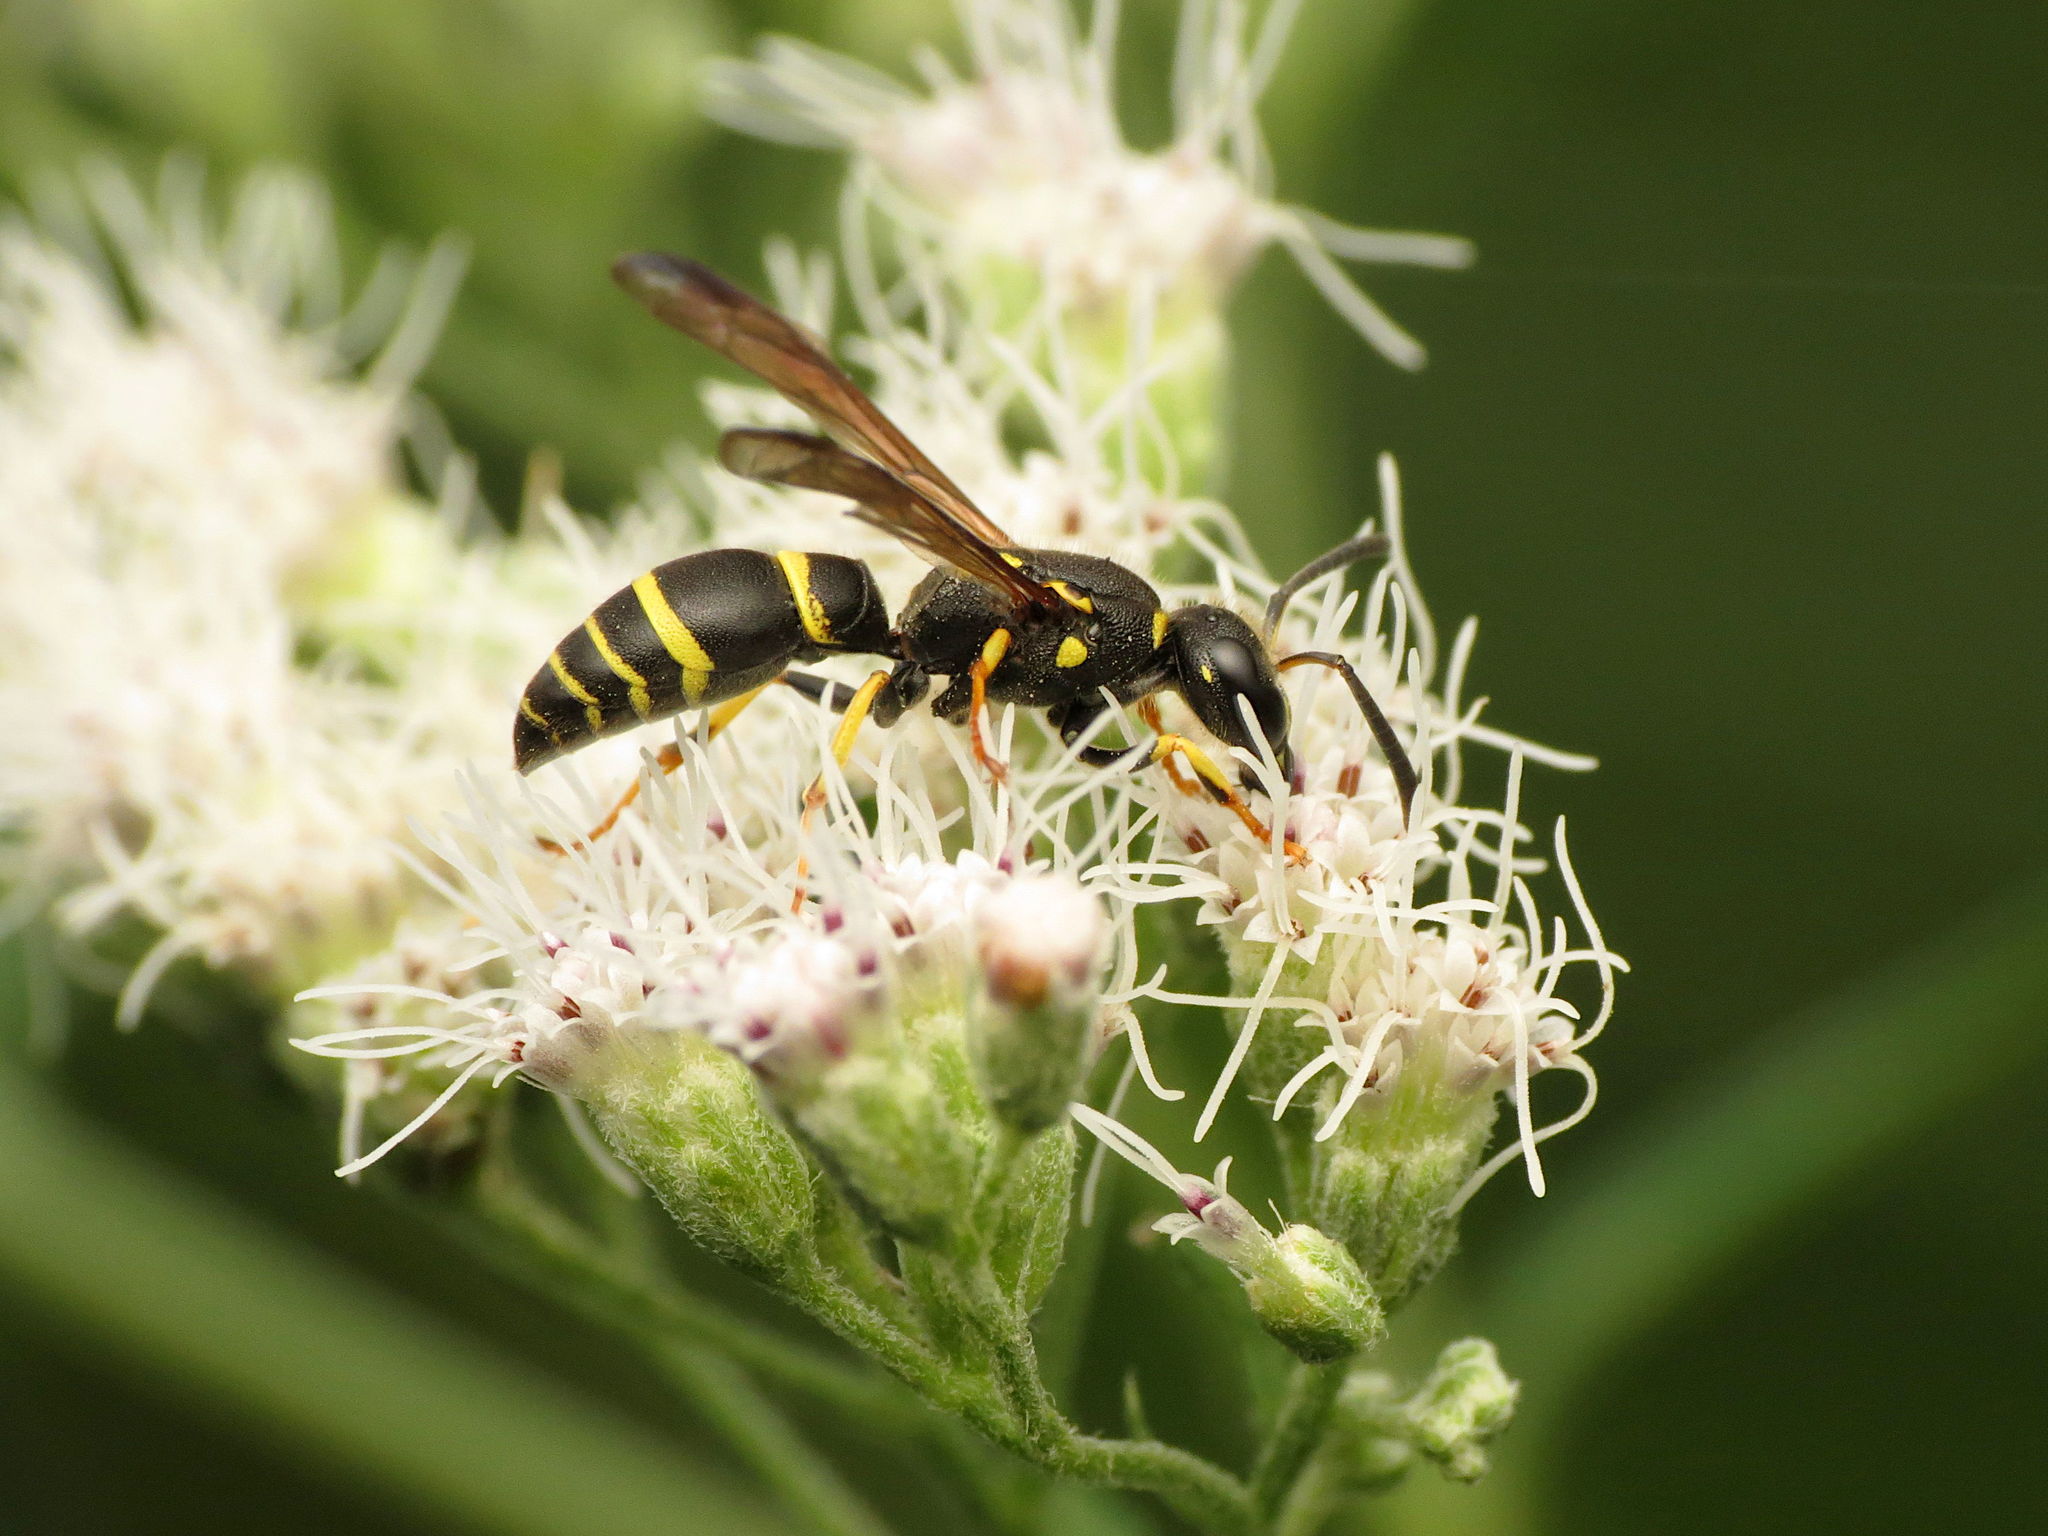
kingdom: Animalia
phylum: Arthropoda
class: Insecta
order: Hymenoptera
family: Vespidae
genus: Ancistrocerus
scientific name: Ancistrocerus adiabatus
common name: Bramble mason wasp
